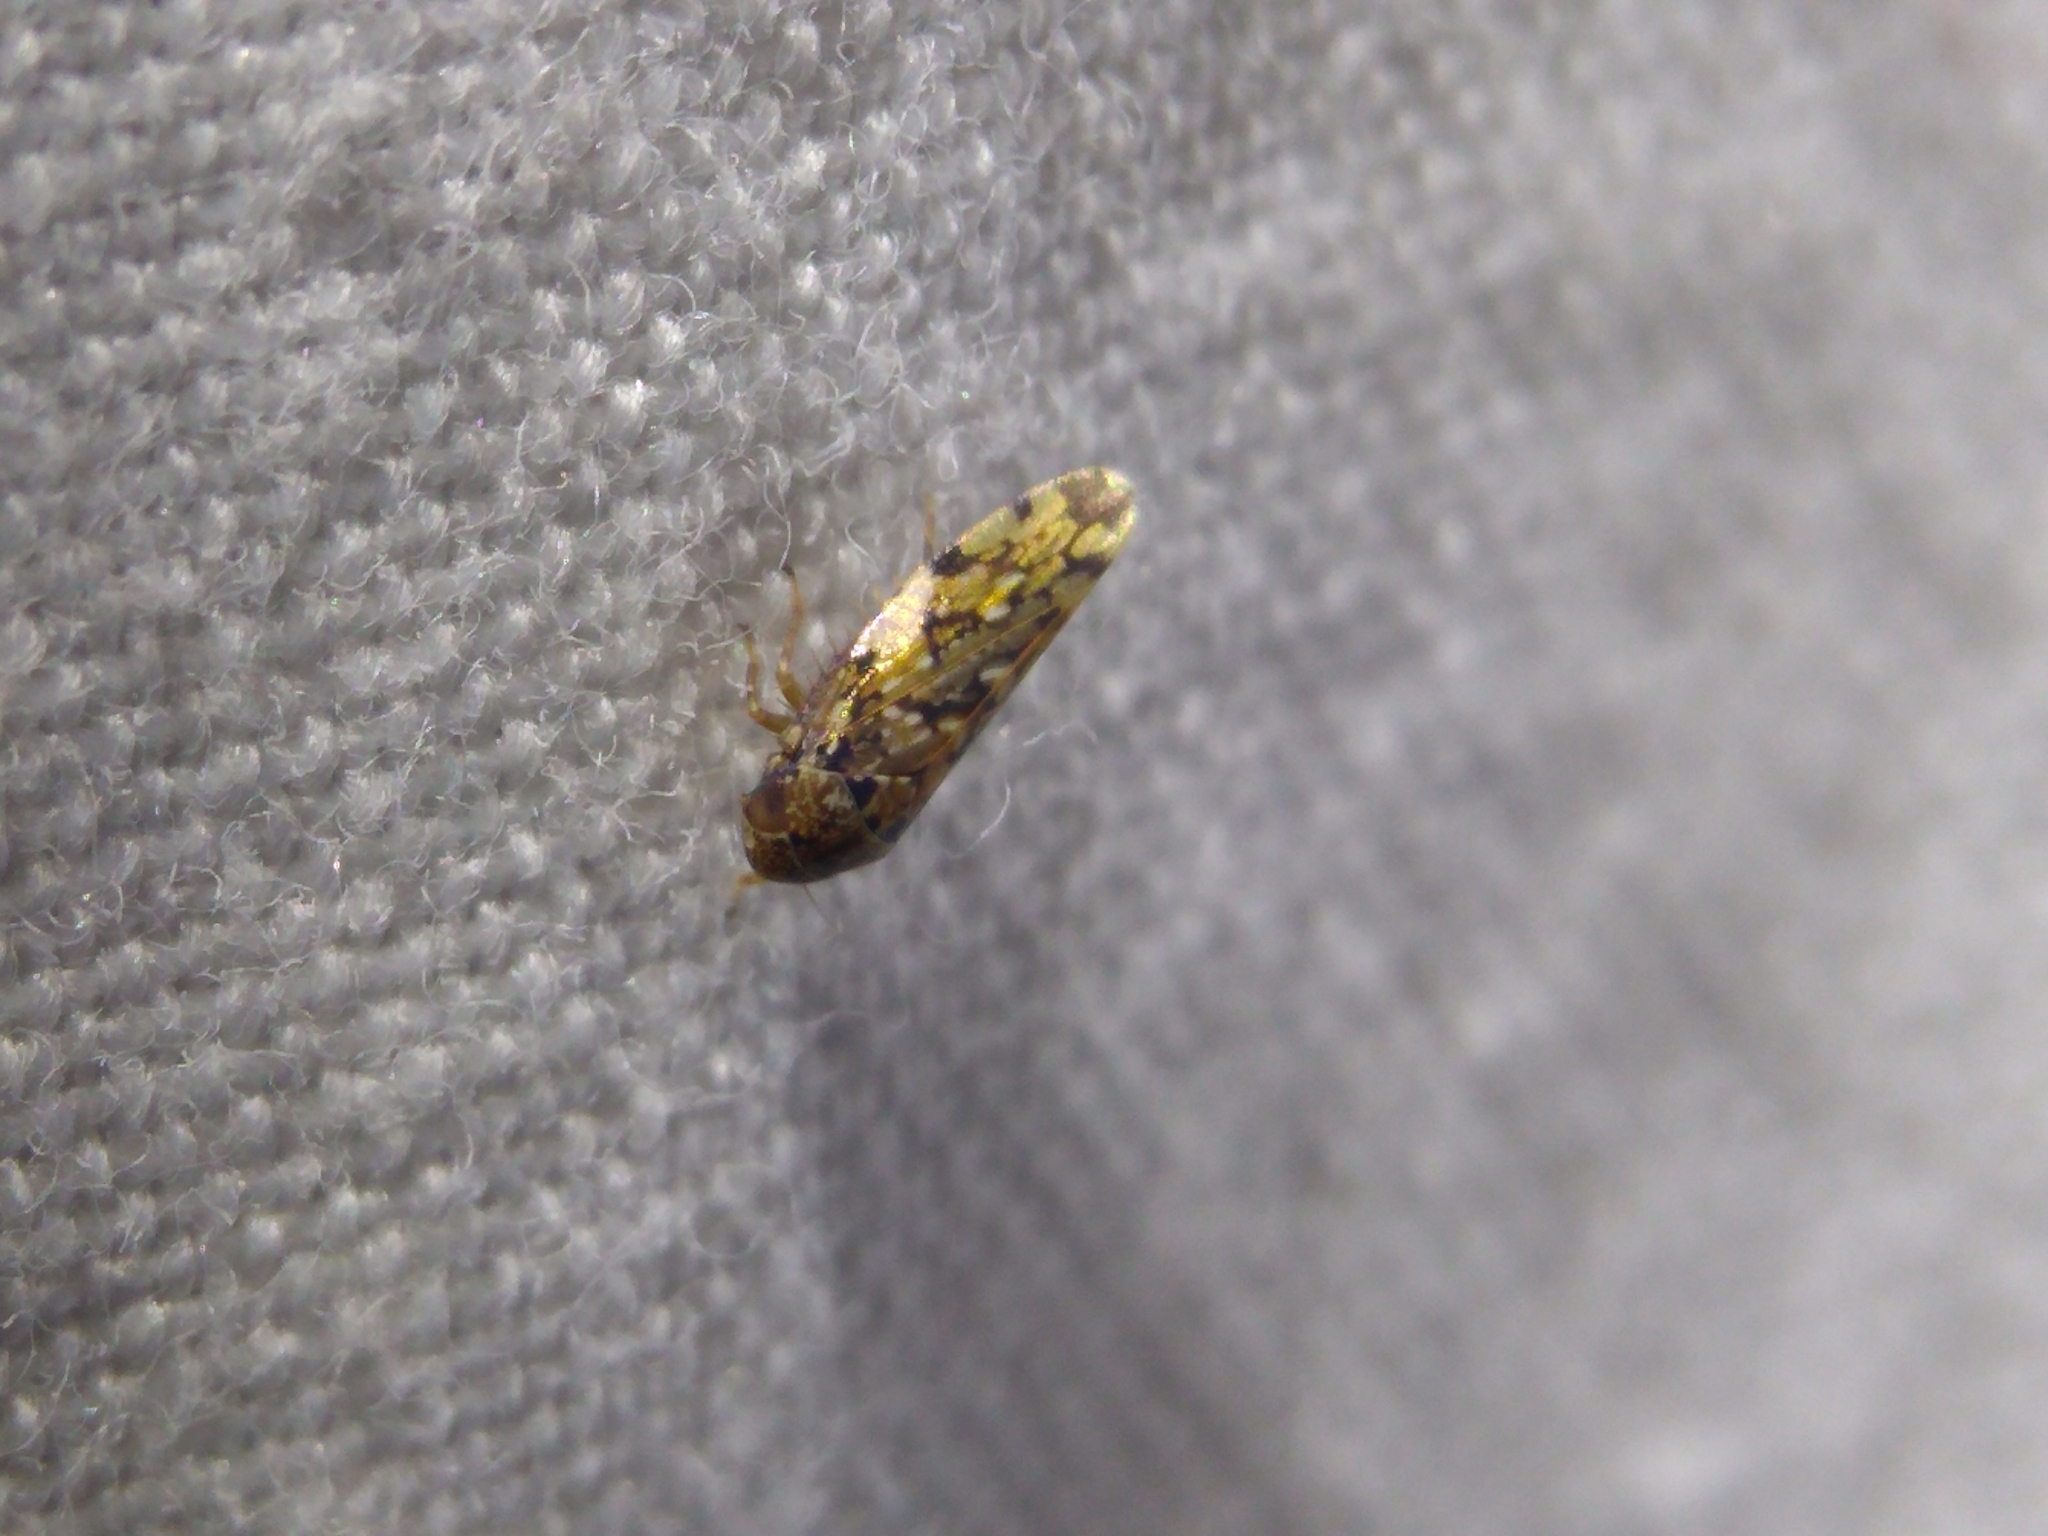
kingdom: Animalia
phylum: Arthropoda
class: Insecta
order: Hemiptera
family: Cicadellidae
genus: Xestocephalus
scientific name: Xestocephalus tessellatus
